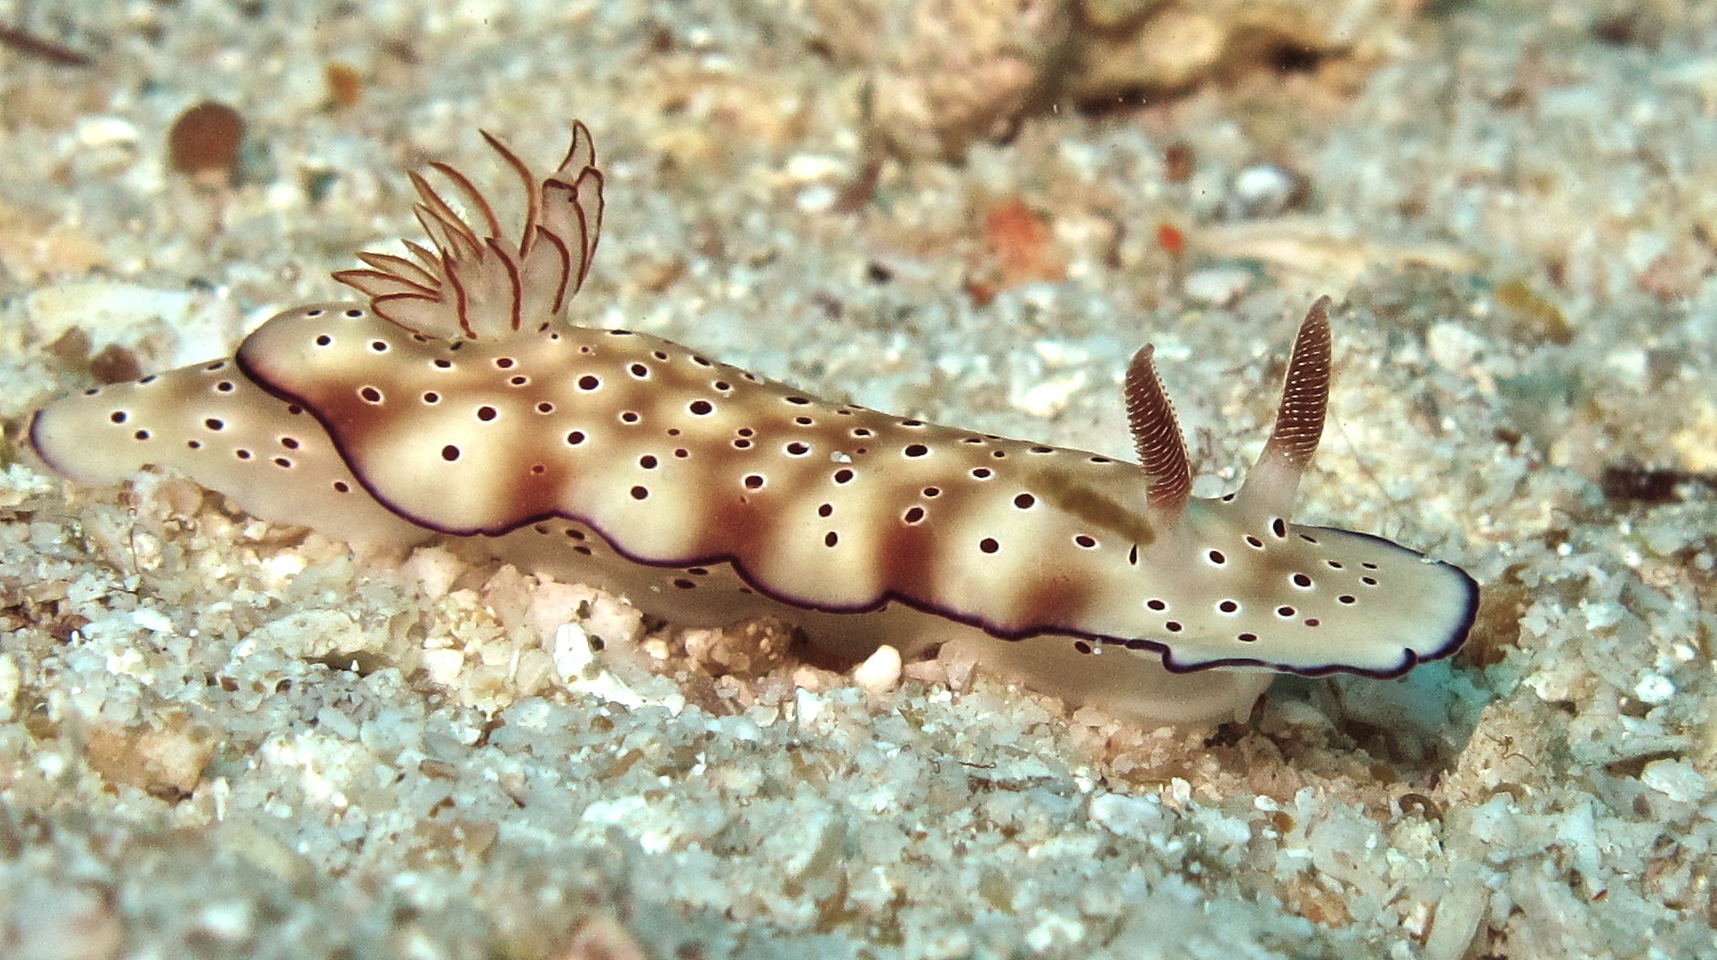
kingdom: Animalia
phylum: Mollusca
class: Gastropoda
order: Nudibranchia
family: Chromodorididae
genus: Hypselodoris
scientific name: Hypselodoris tryoni
